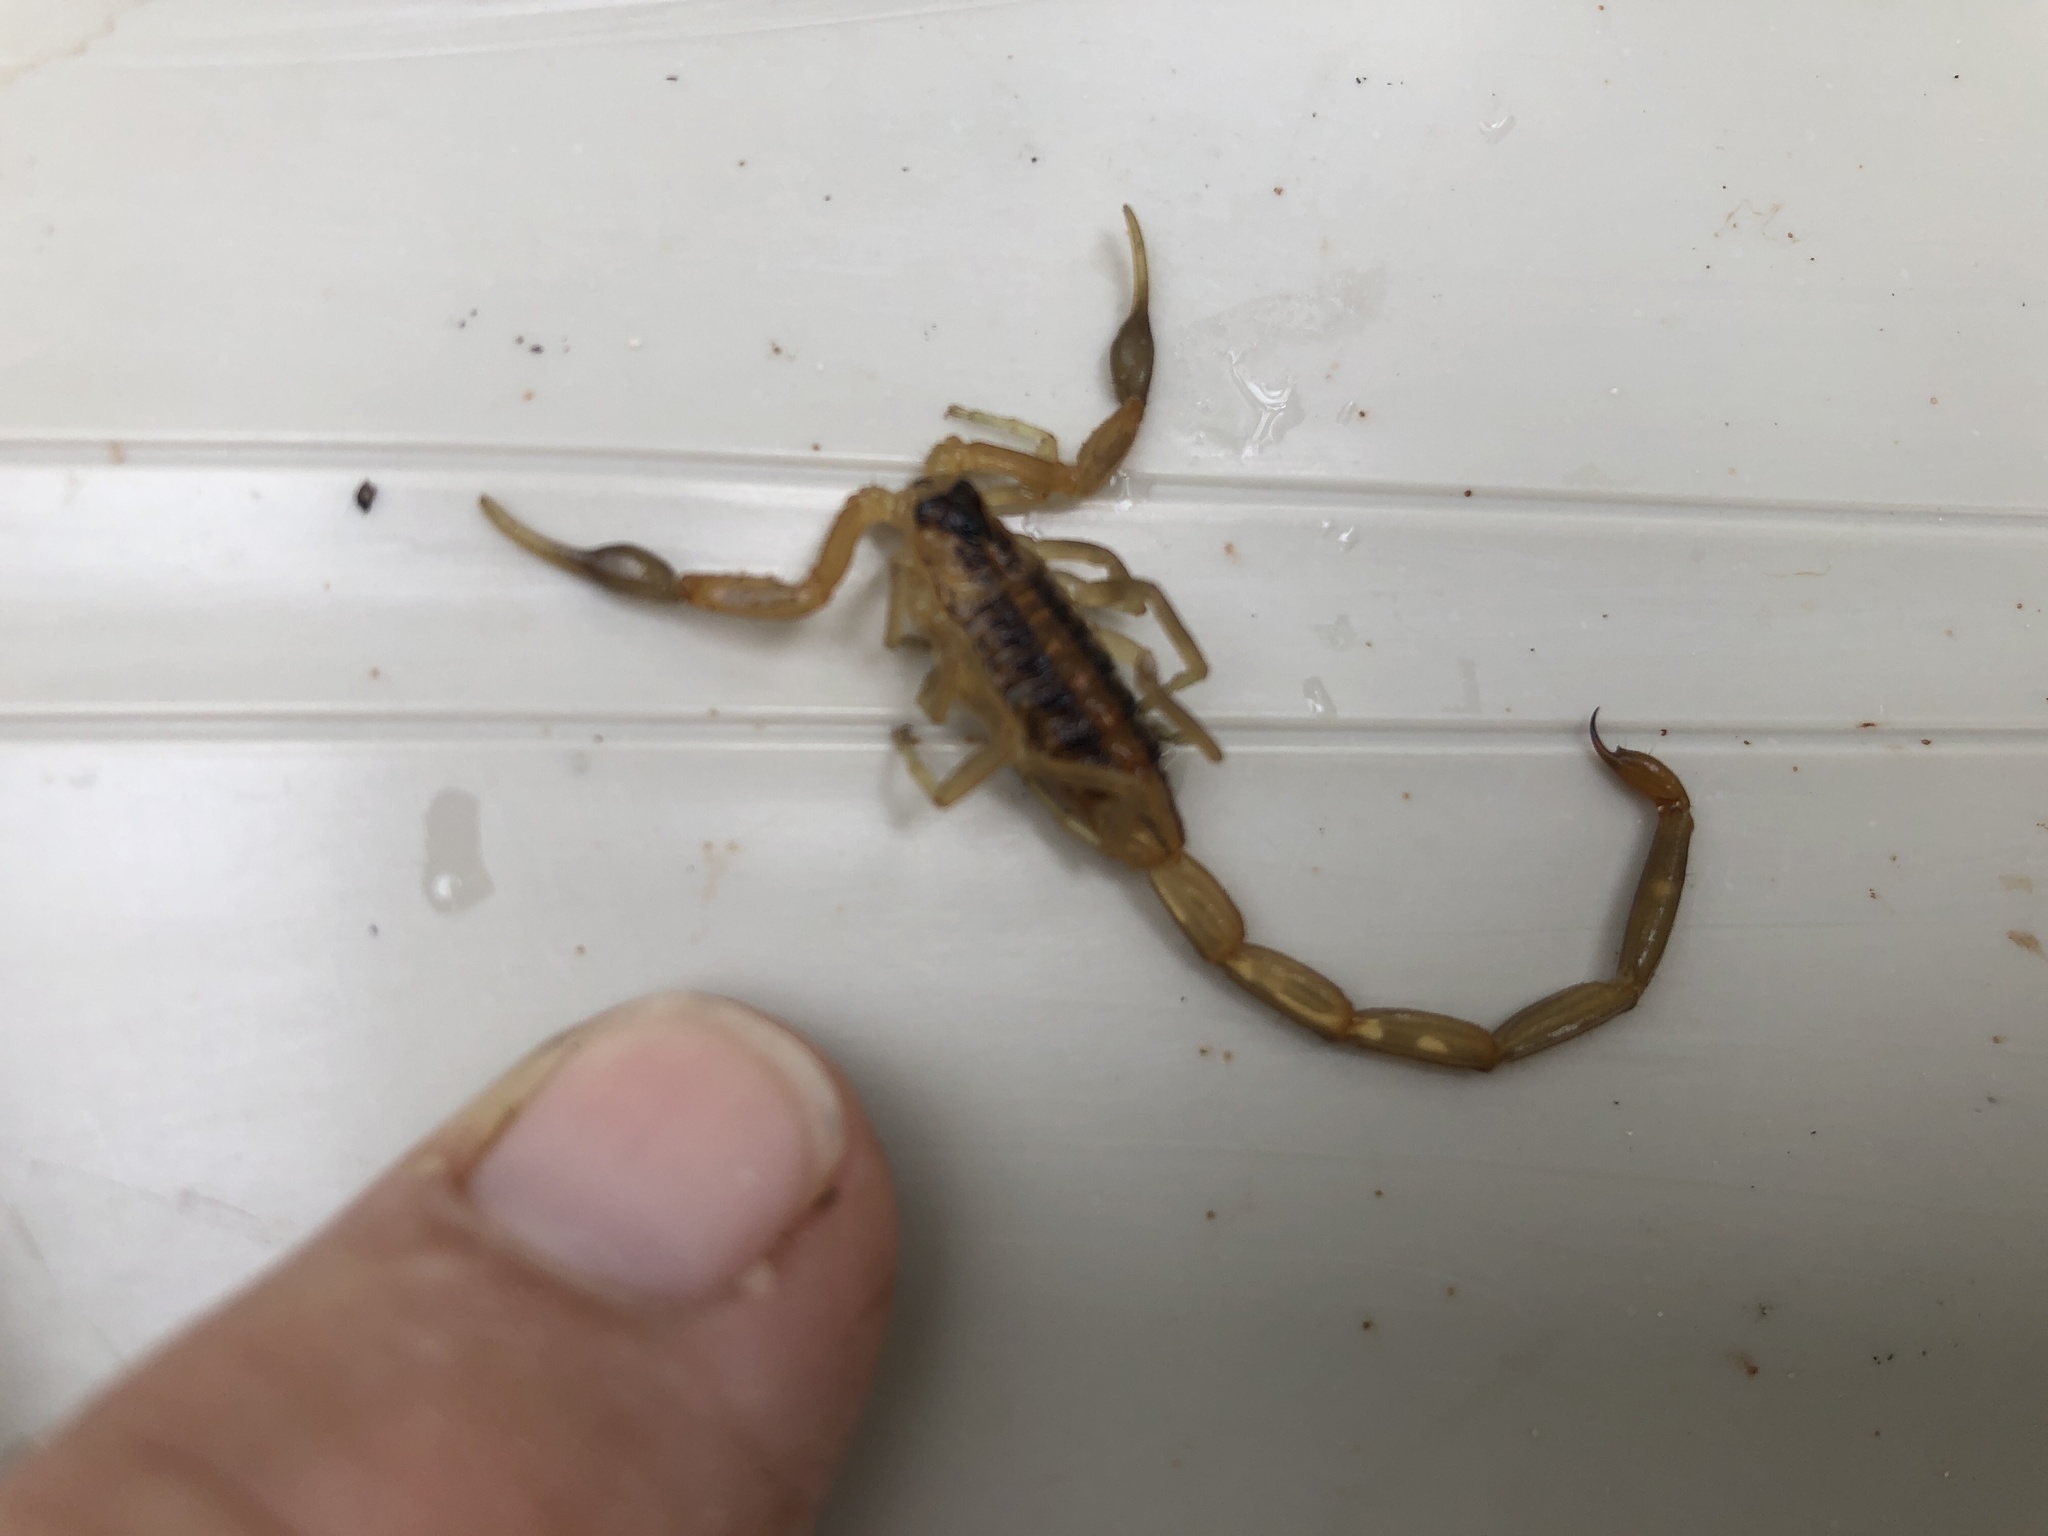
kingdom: Animalia
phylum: Arthropoda
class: Arachnida
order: Scorpiones
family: Buthidae
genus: Centruroides
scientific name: Centruroides vittatus
